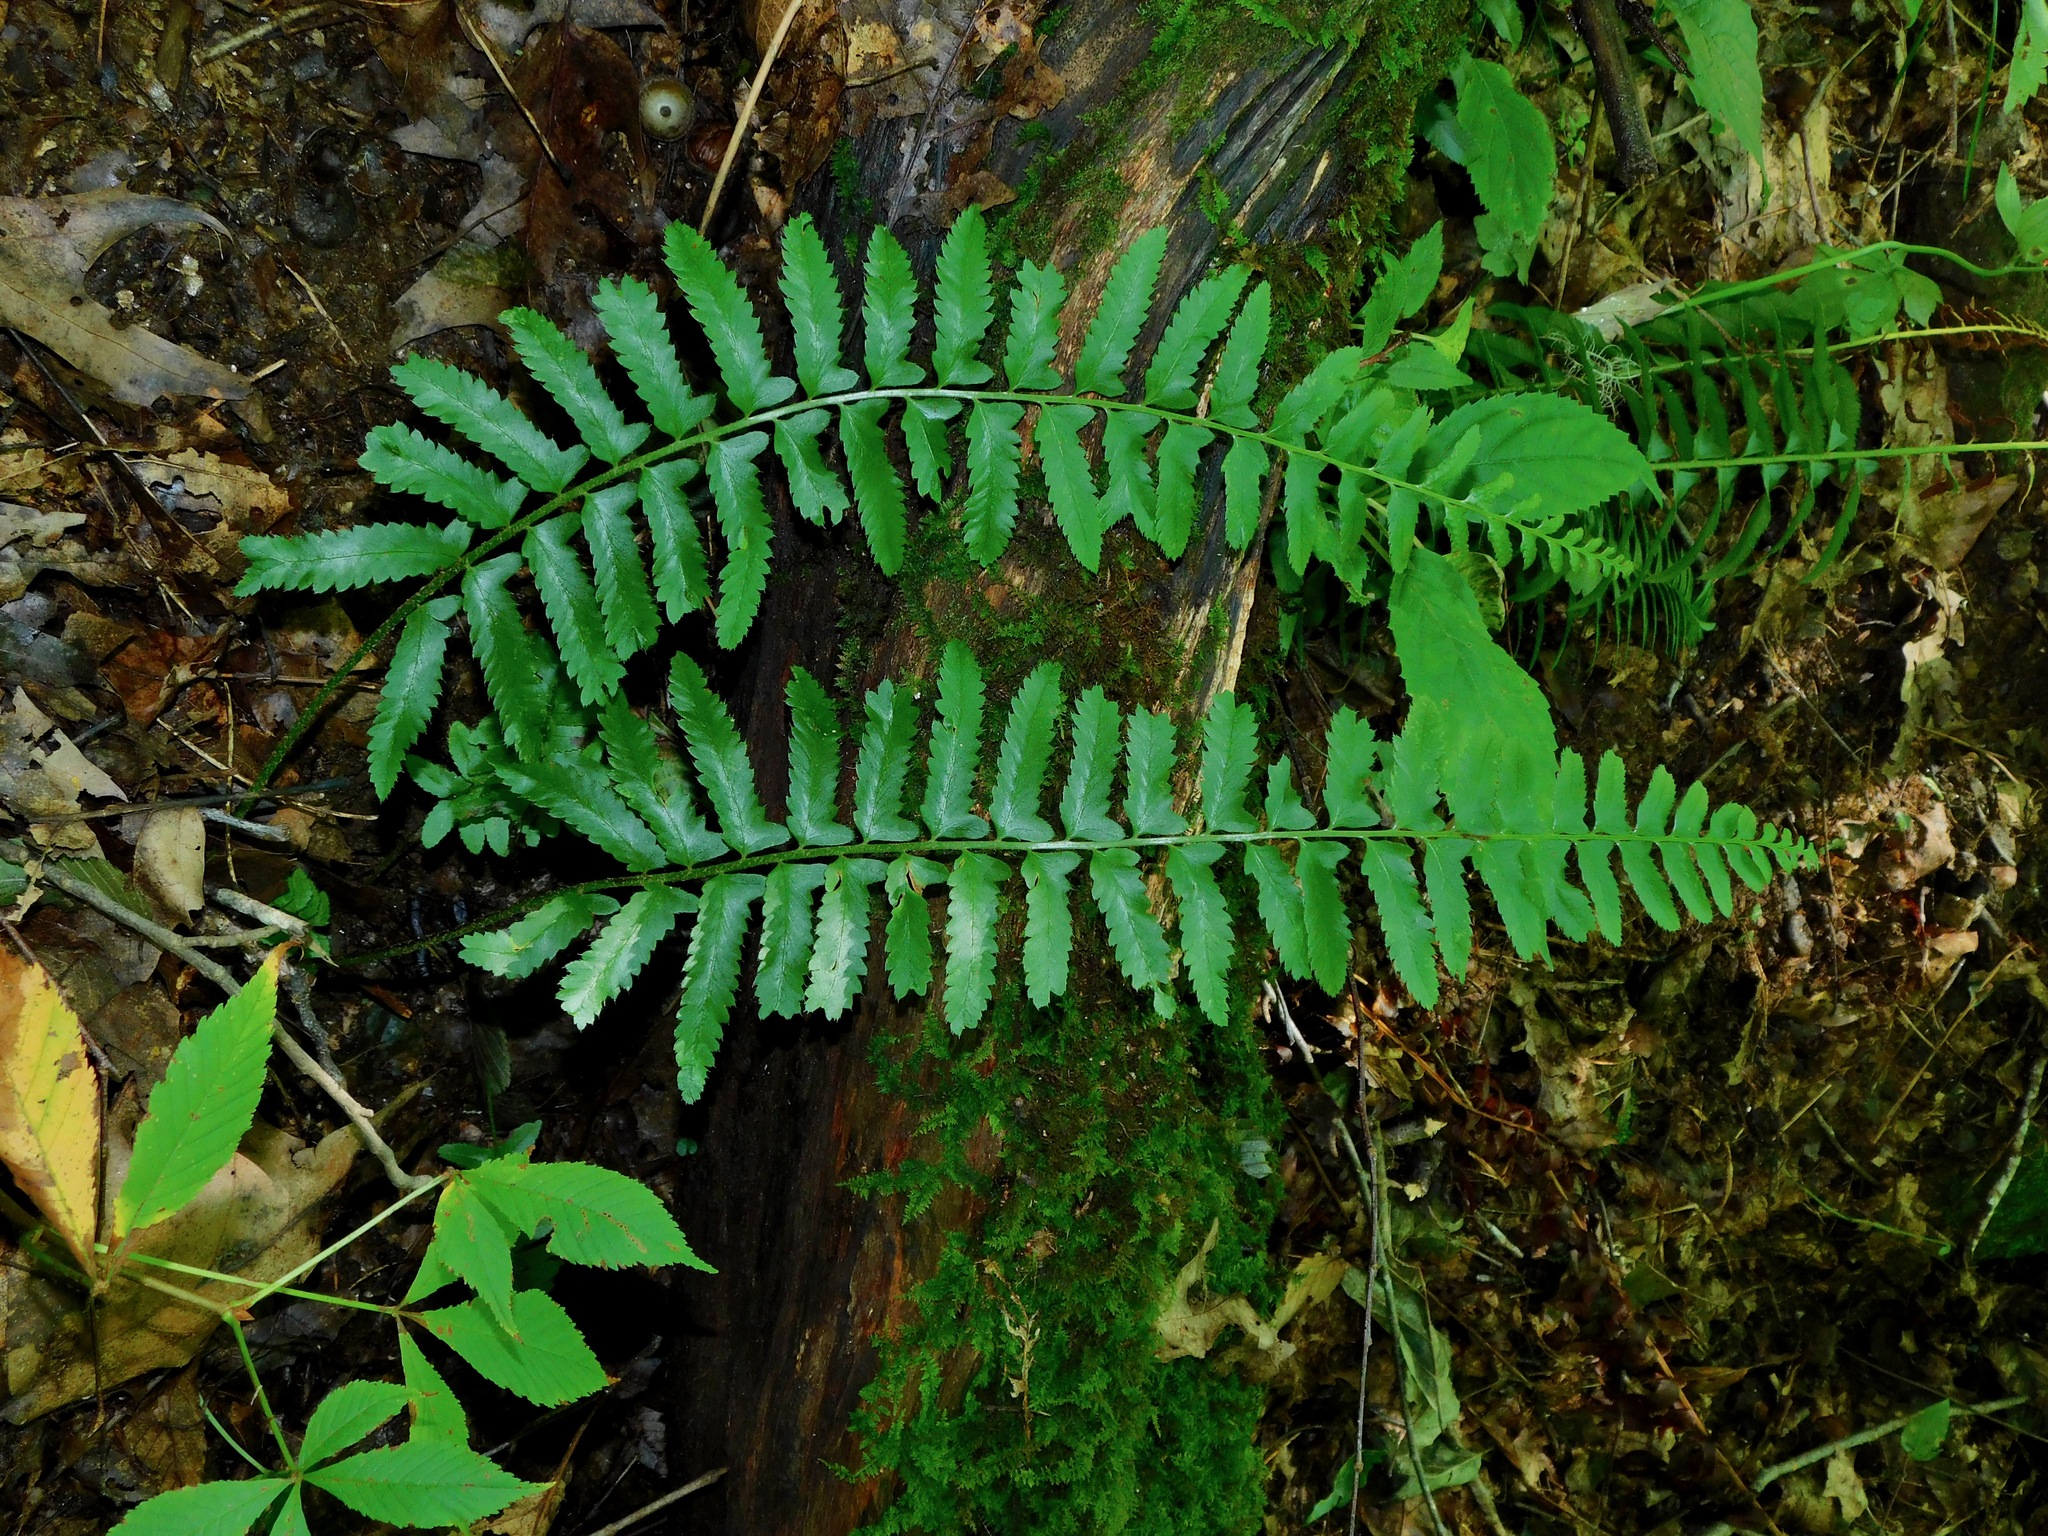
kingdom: Plantae
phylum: Tracheophyta
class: Polypodiopsida
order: Polypodiales
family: Dryopteridaceae
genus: Polystichum
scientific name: Polystichum acrostichoides
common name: Christmas fern
